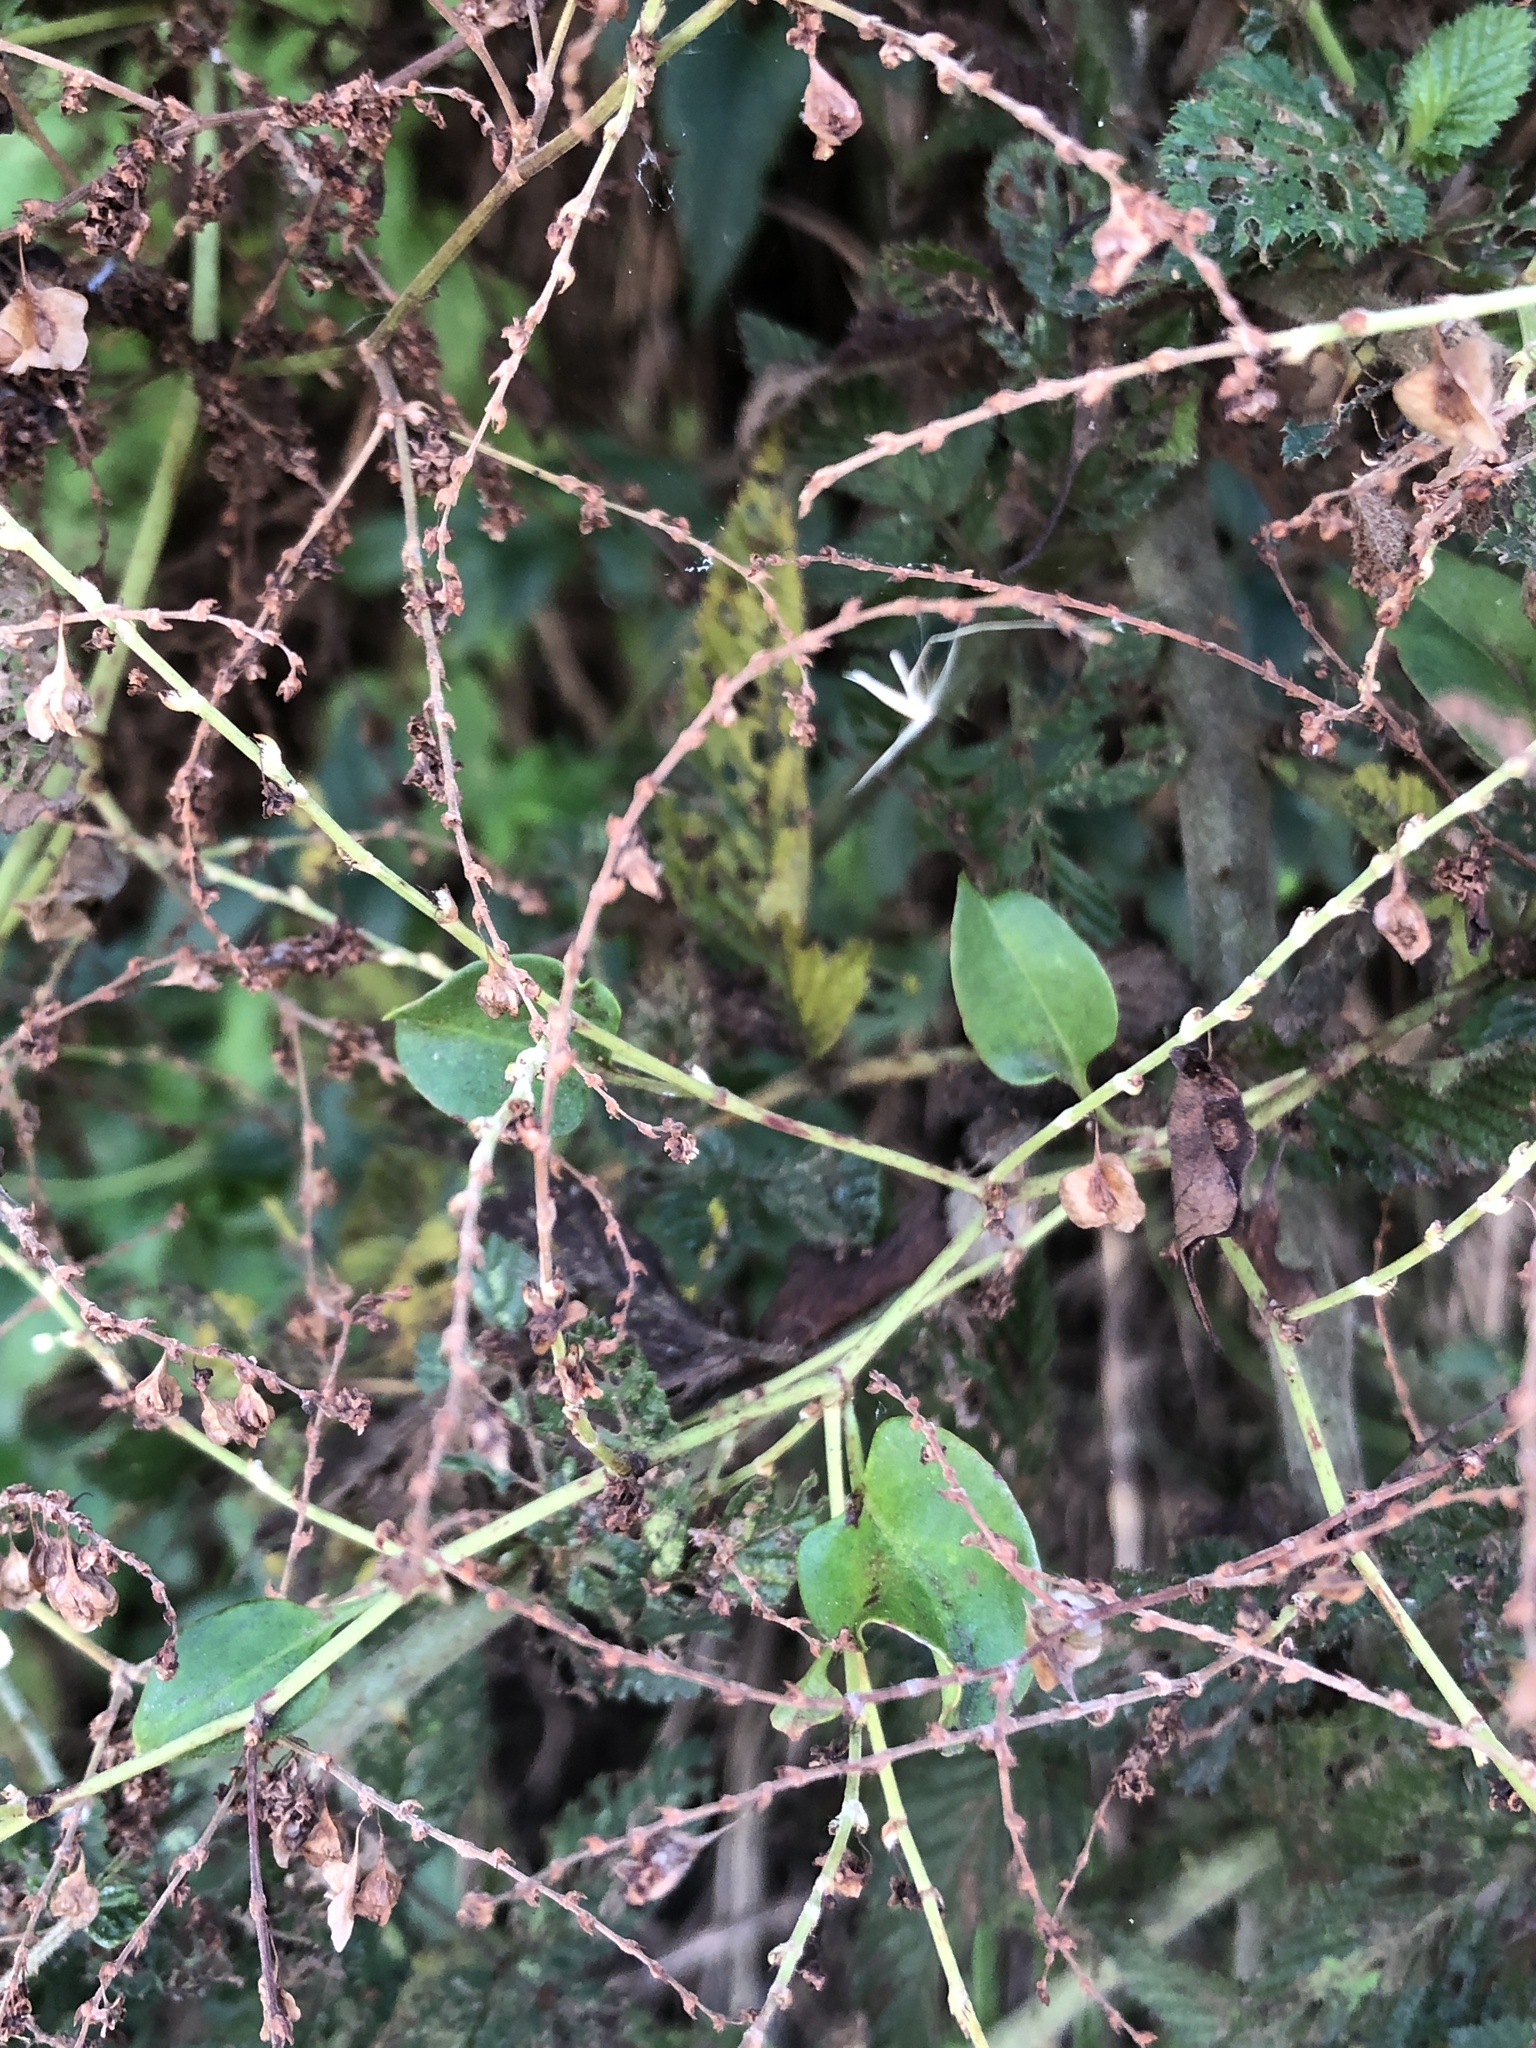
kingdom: Plantae
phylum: Tracheophyta
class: Magnoliopsida
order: Caryophyllales
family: Polygonaceae
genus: Reynoutria
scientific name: Reynoutria multiflora
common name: Chinese fleeceflower
